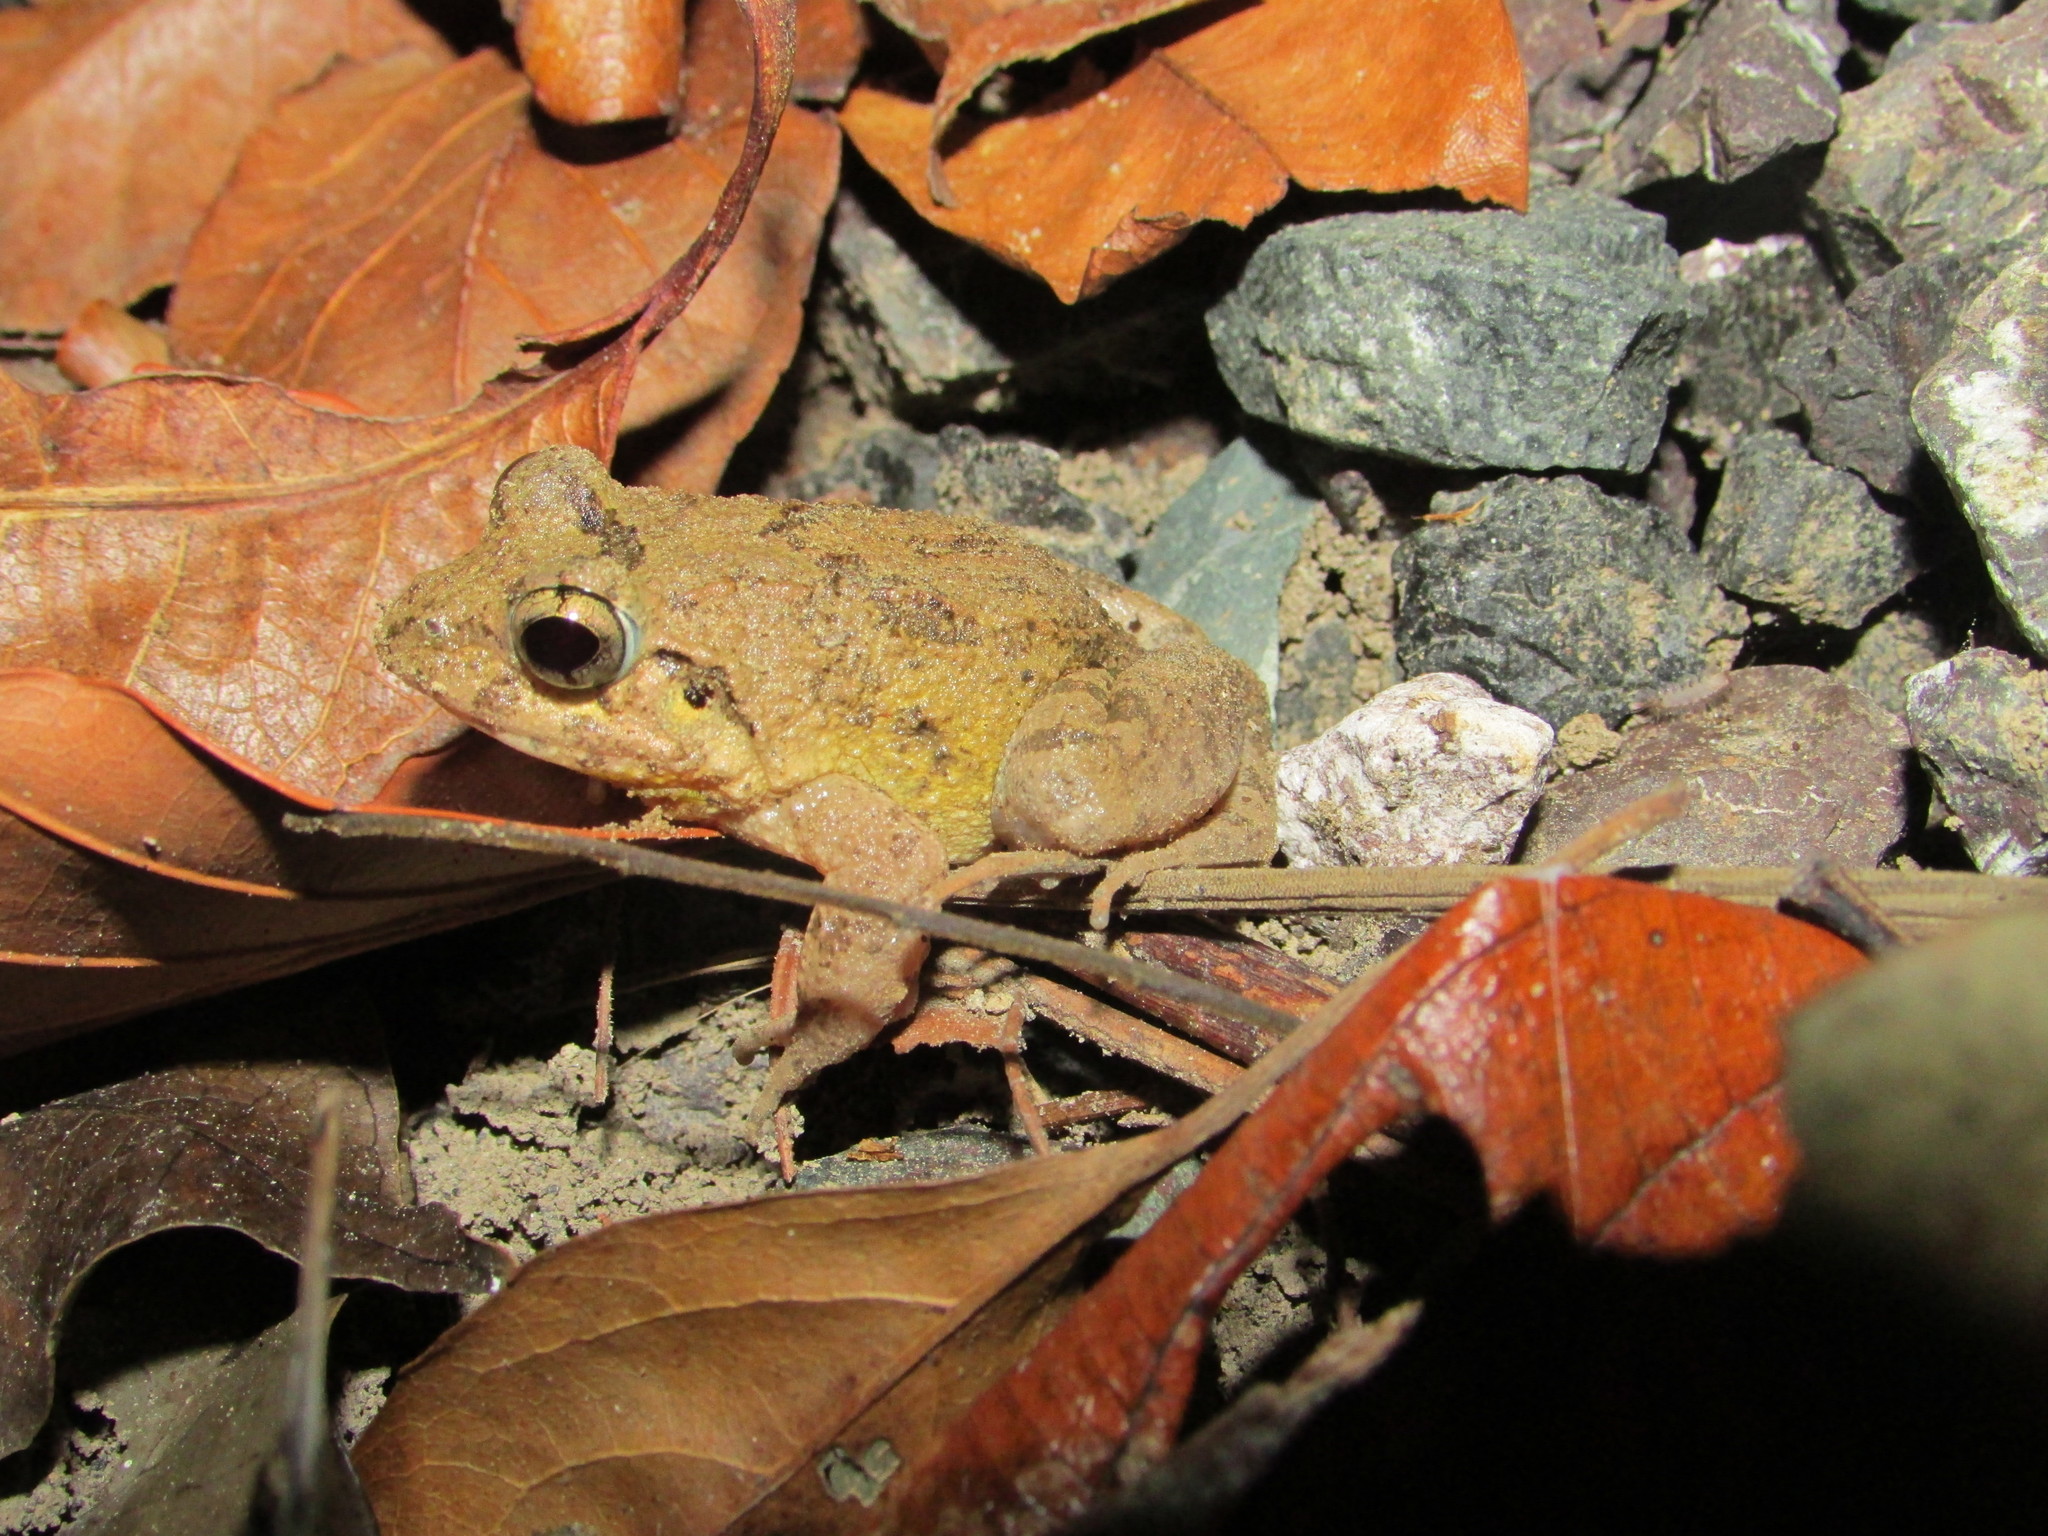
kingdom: Animalia
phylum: Chordata
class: Amphibia
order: Anura
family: Dicroglossidae
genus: Minervarya
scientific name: Minervarya andamanensis
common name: Andaman wart frog
